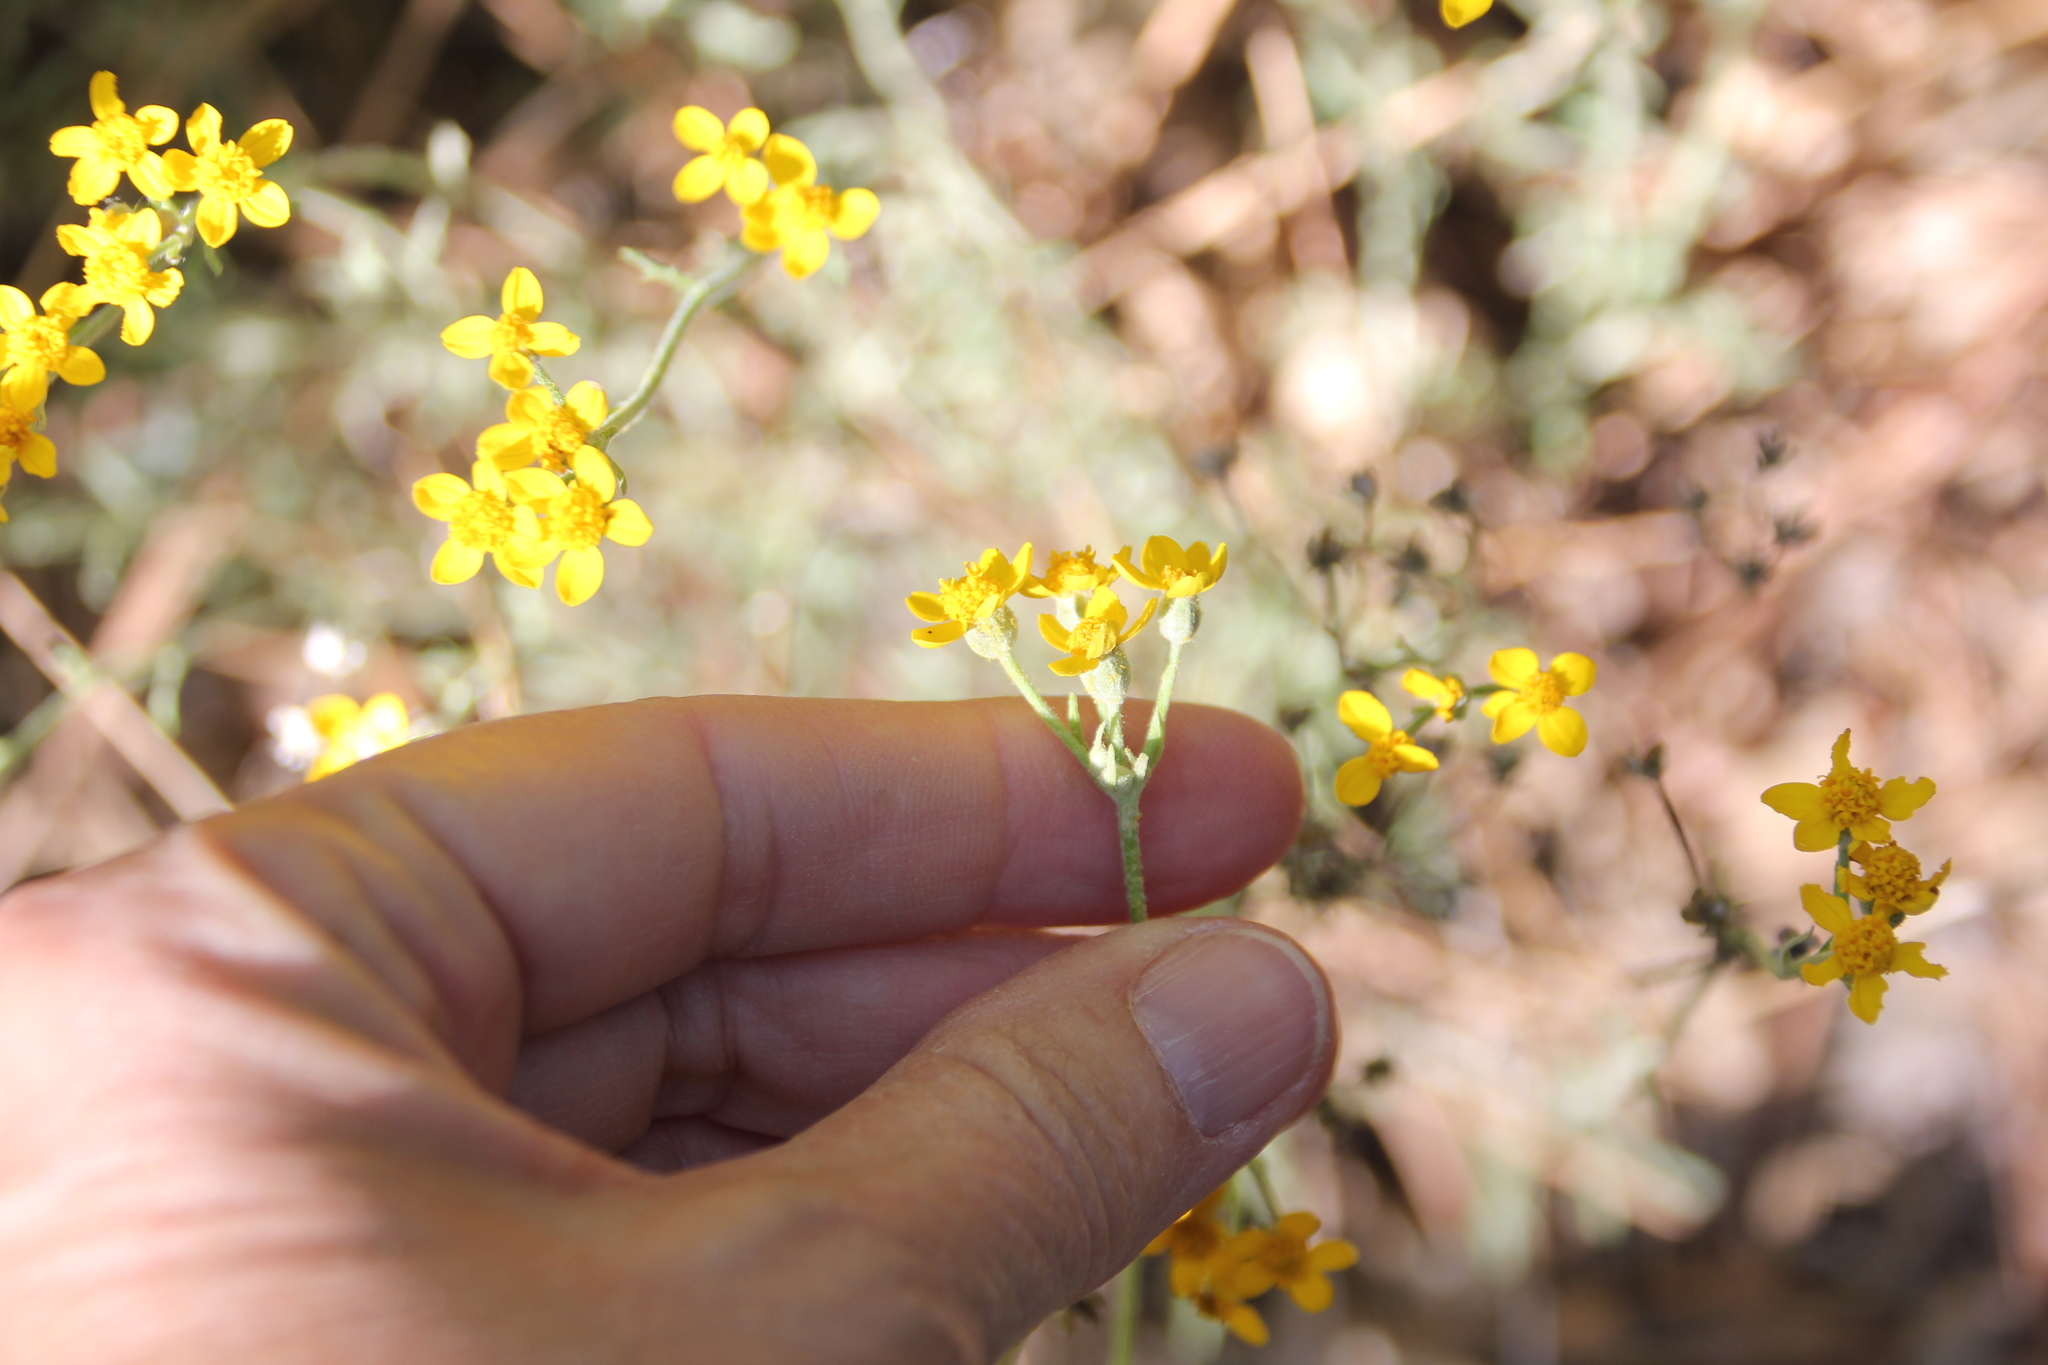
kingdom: Plantae
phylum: Tracheophyta
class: Magnoliopsida
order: Asterales
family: Asteraceae
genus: Eriophyllum
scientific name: Eriophyllum confertiflorum
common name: Golden-yarrow
